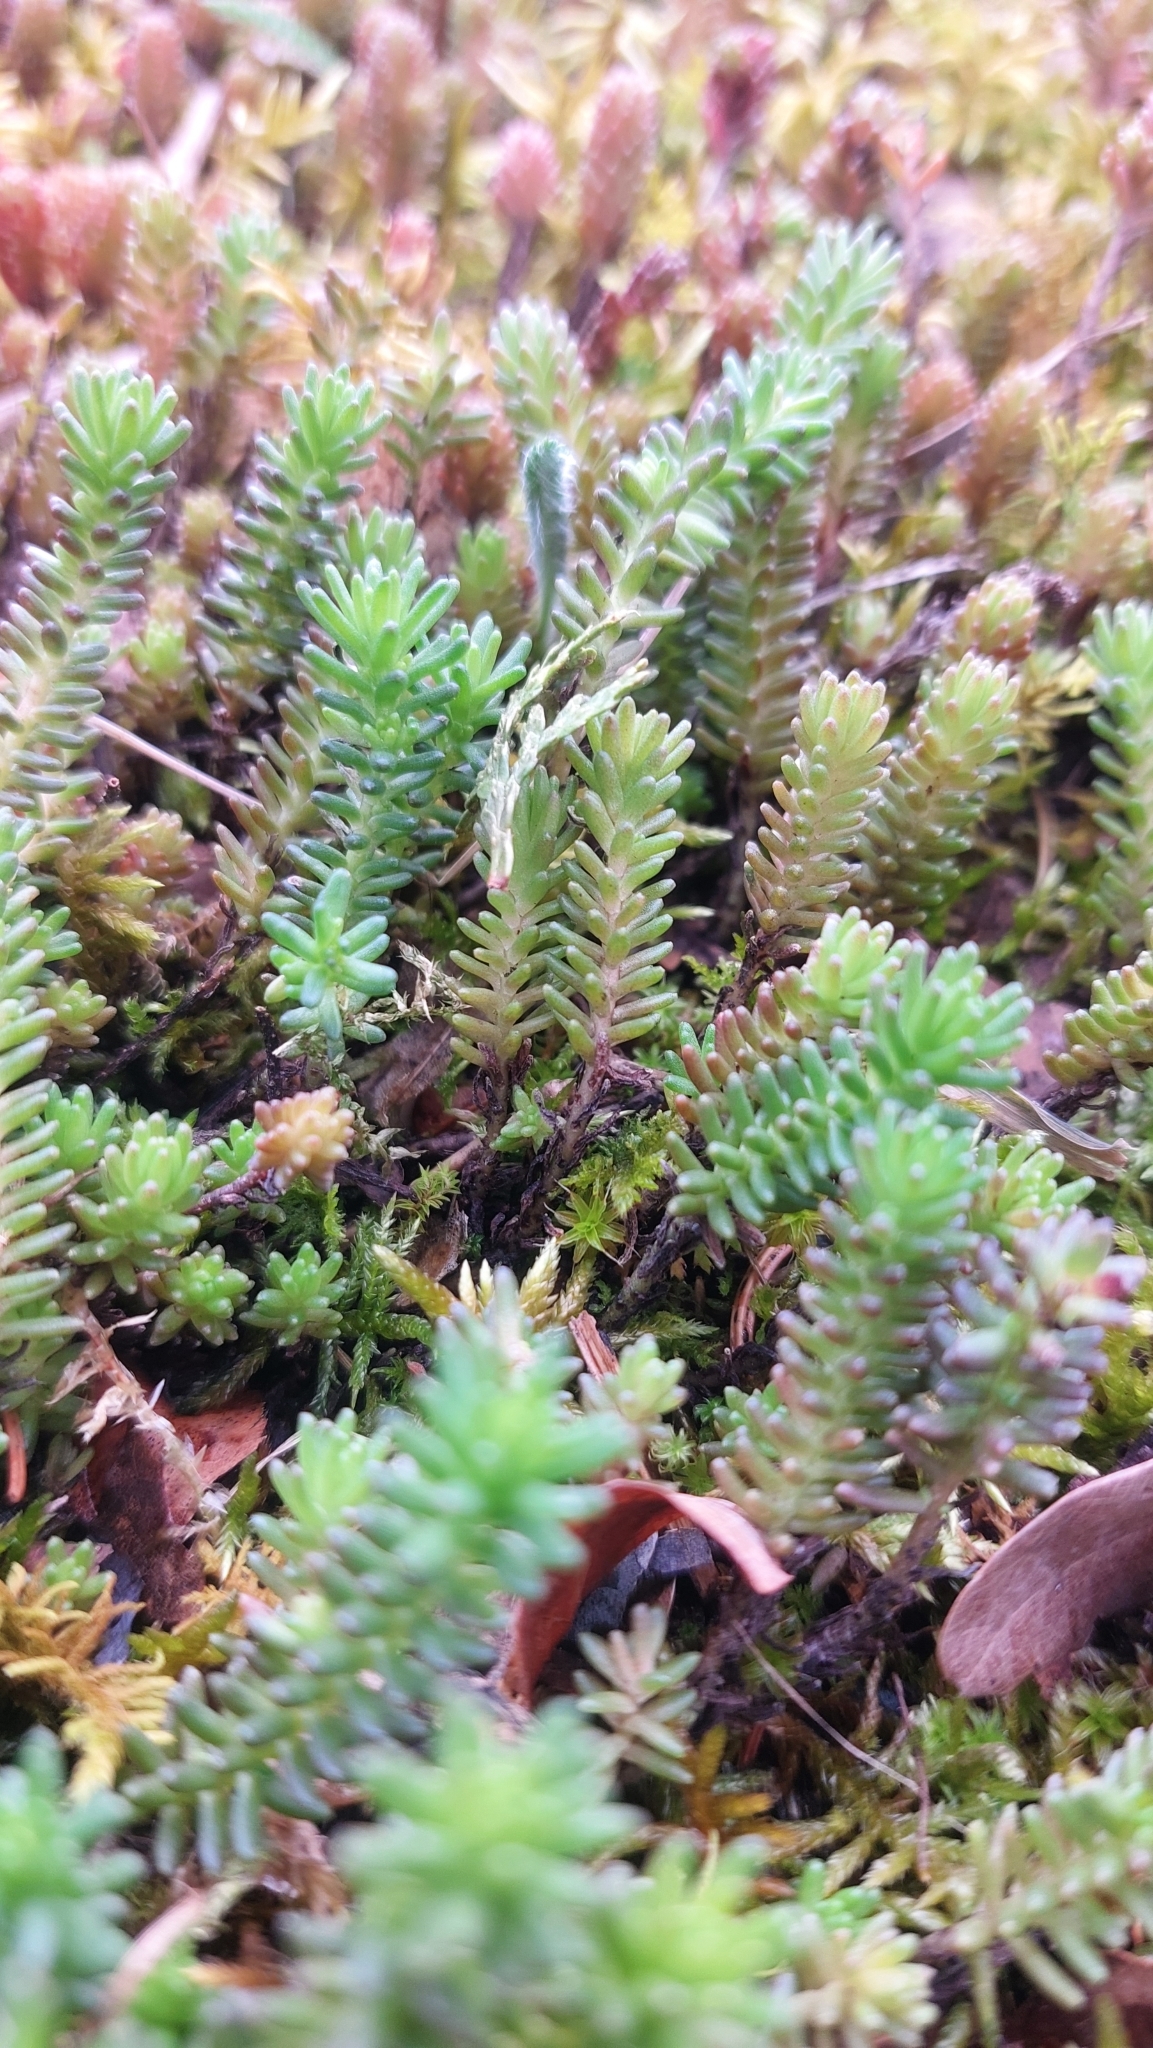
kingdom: Plantae
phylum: Tracheophyta
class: Magnoliopsida
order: Saxifragales
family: Crassulaceae
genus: Sedum
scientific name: Sedum sexangulare
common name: Tasteless stonecrop
